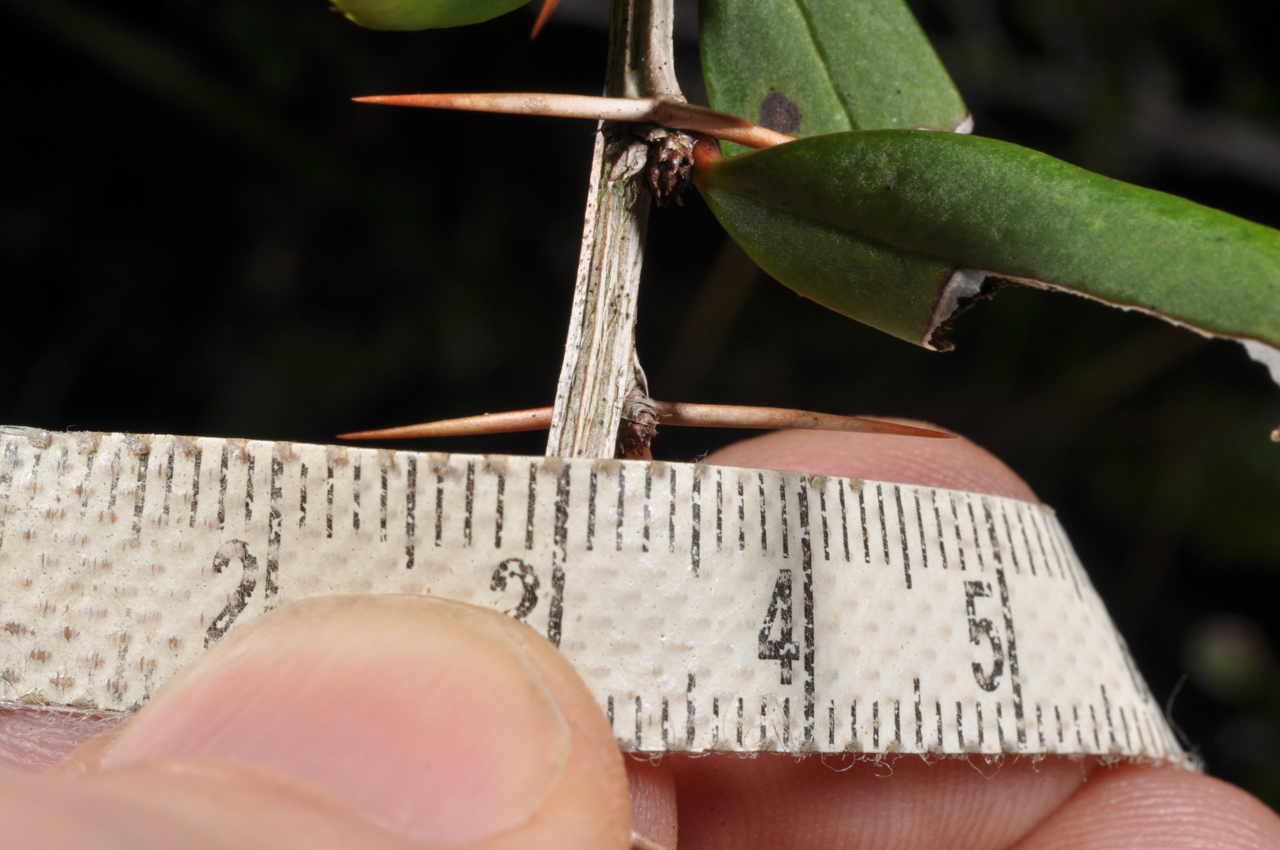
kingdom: Plantae
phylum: Tracheophyta
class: Magnoliopsida
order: Ranunculales
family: Berberidaceae
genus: Berberis
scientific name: Berberis tarokoensis
